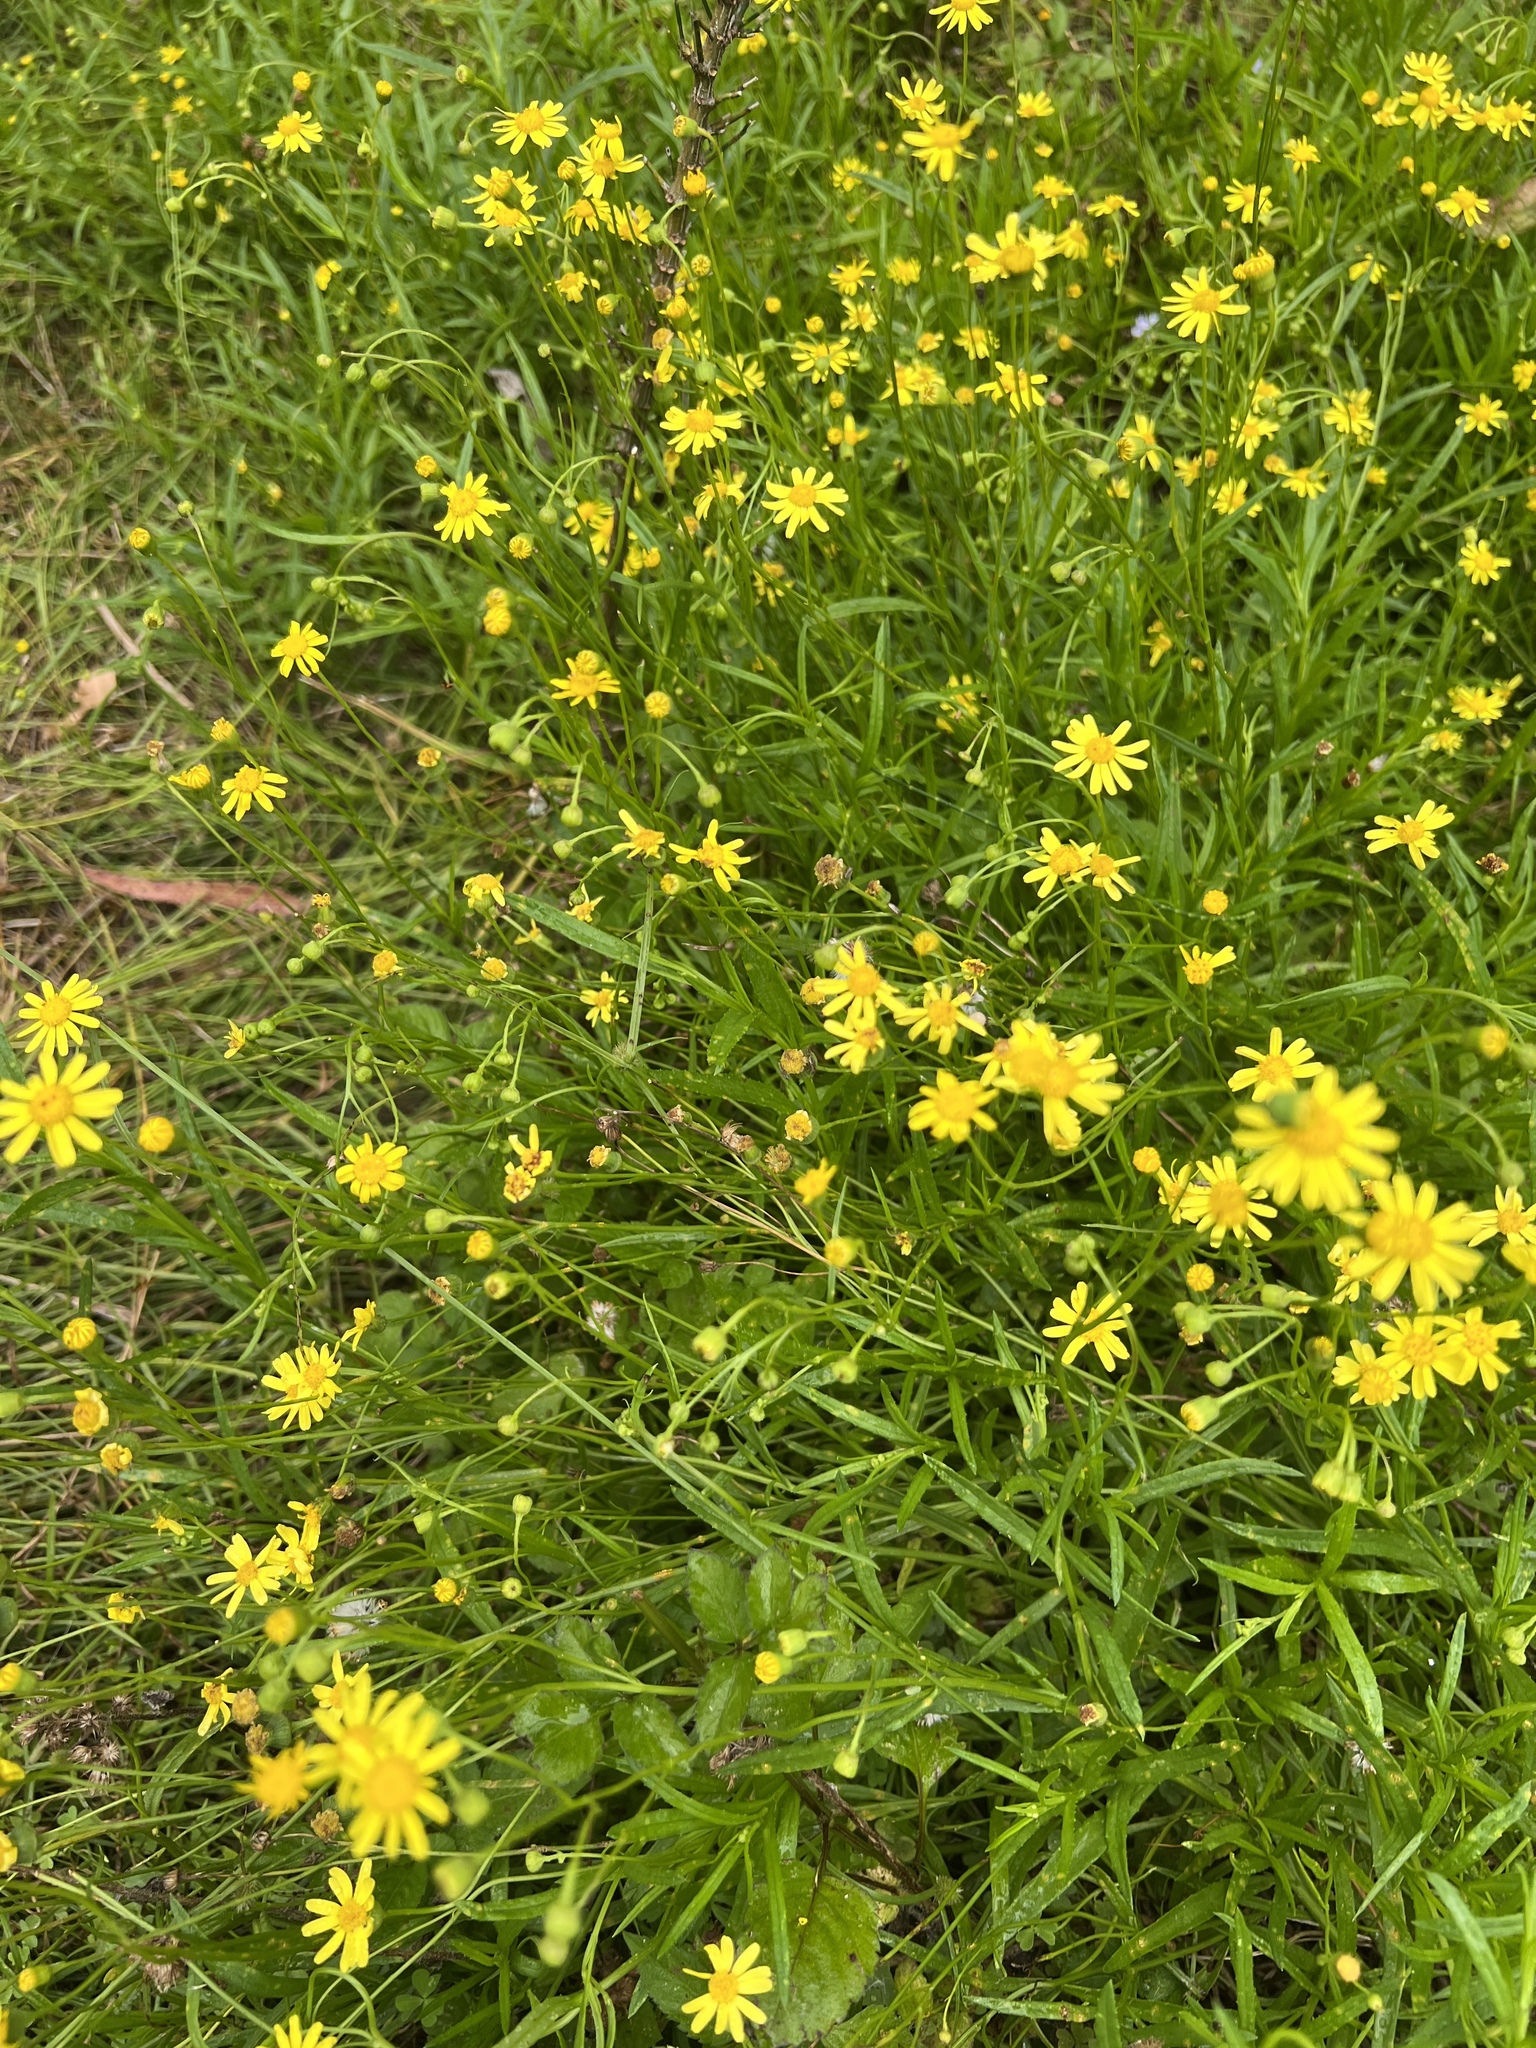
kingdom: Plantae
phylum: Tracheophyta
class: Magnoliopsida
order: Malpighiales
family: Euphorbiaceae
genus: Macaranga
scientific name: Macaranga tanarius
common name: Parasol leaf tree
